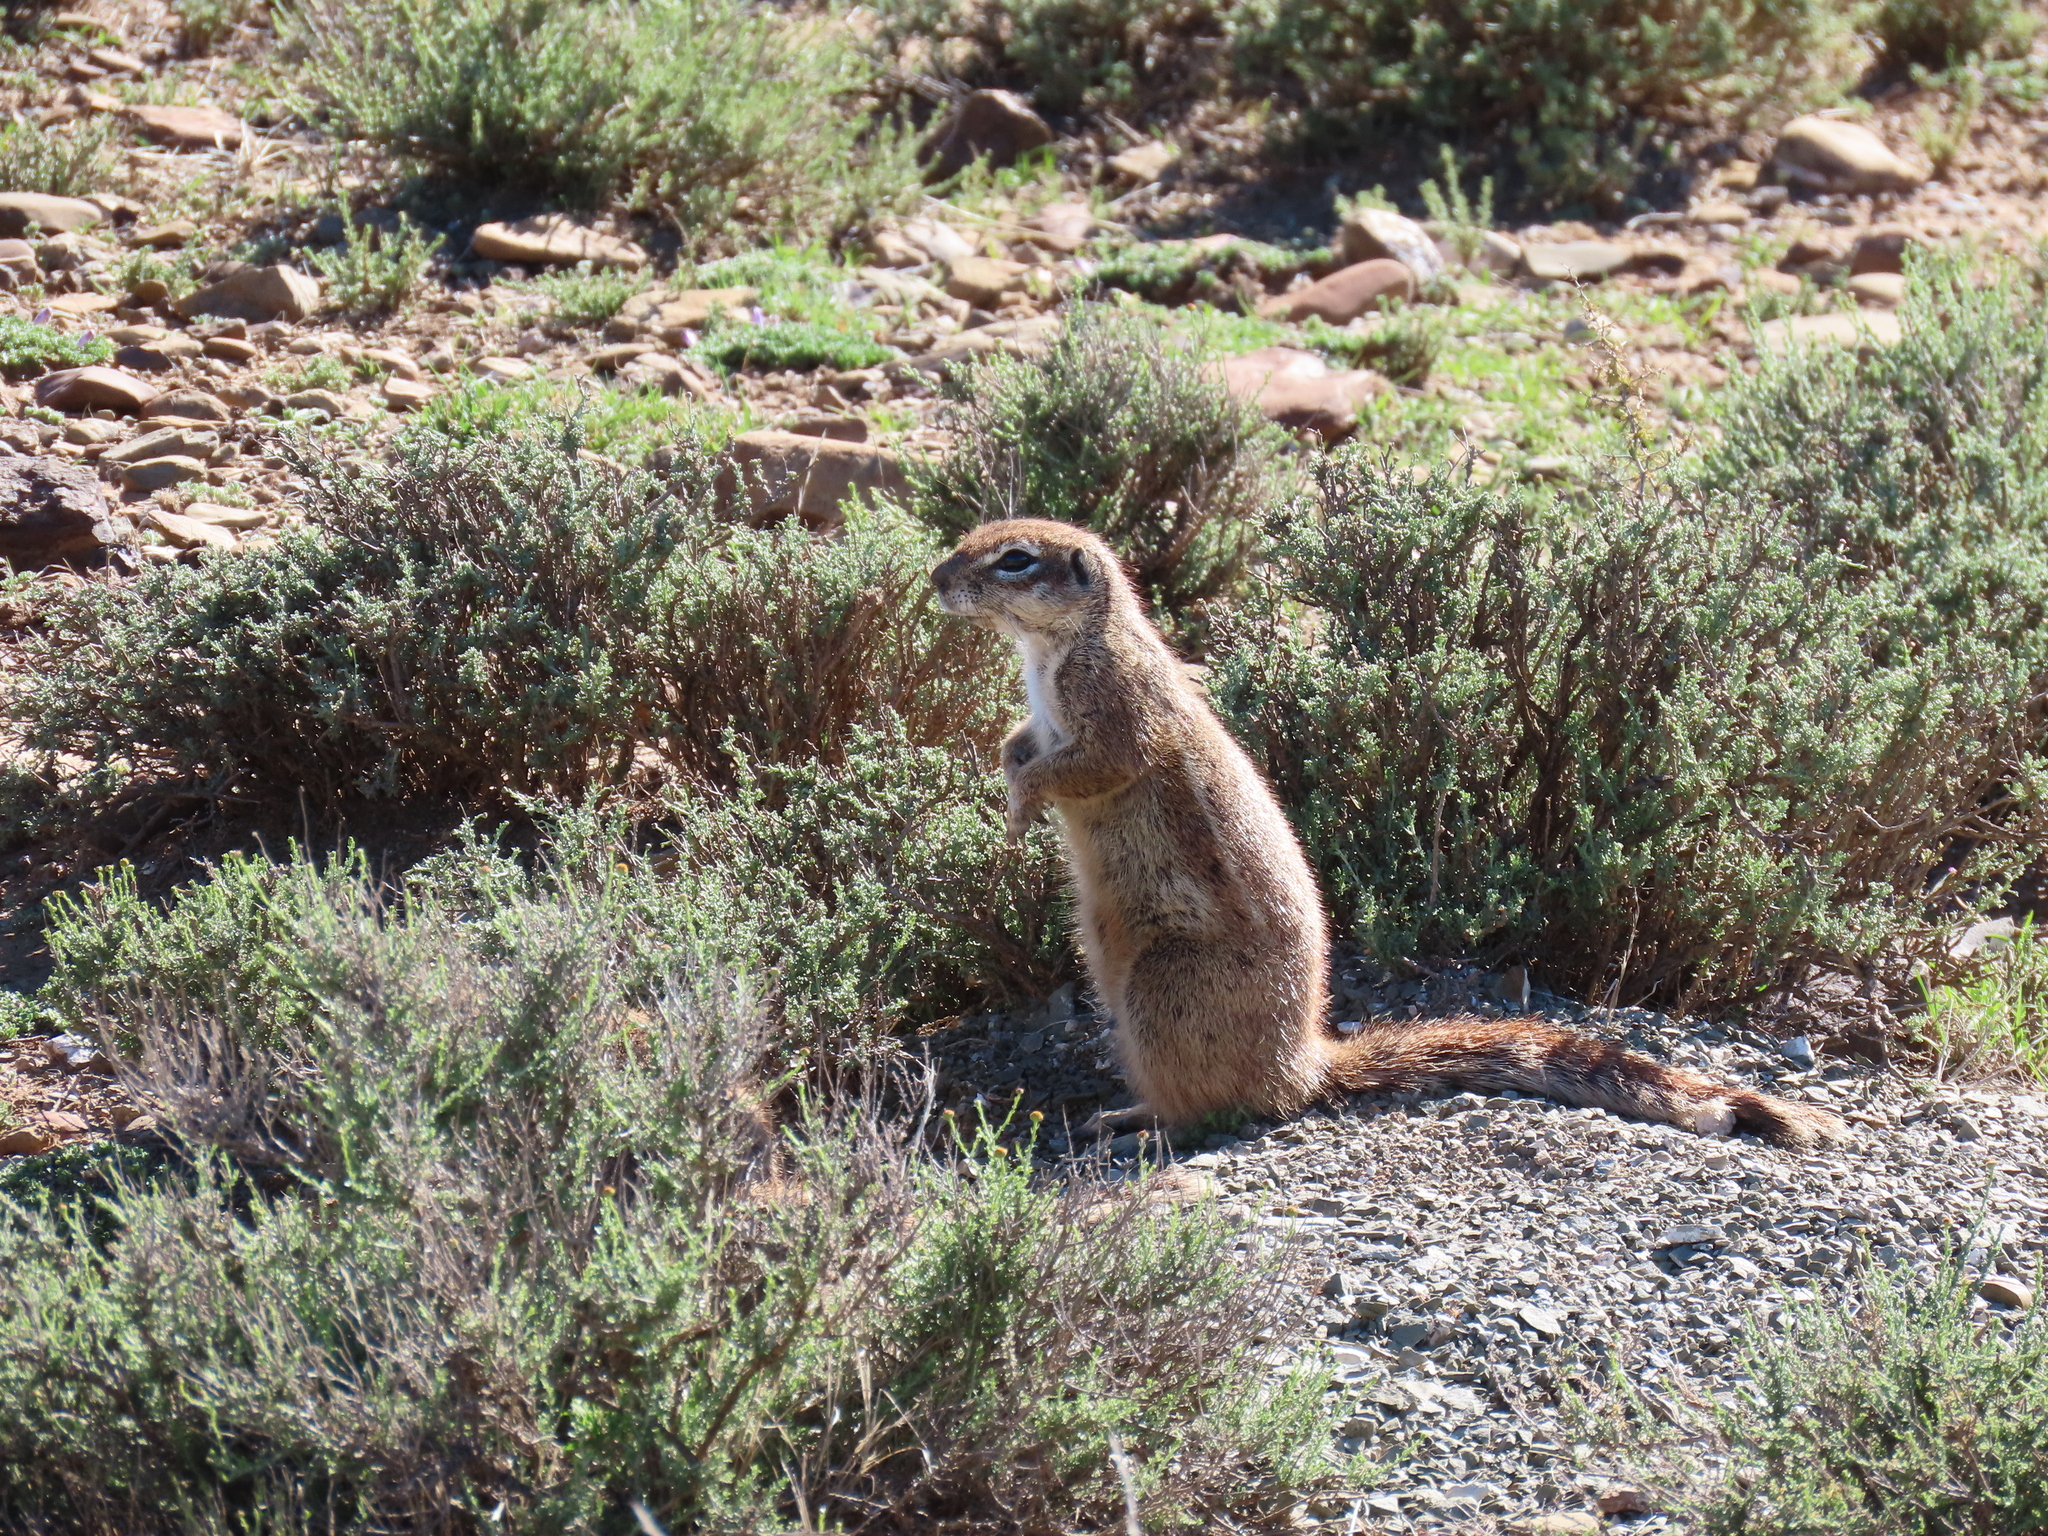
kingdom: Animalia
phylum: Chordata
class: Mammalia
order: Rodentia
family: Sciuridae
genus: Xerus
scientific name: Xerus inauris
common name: South african ground squirrel
